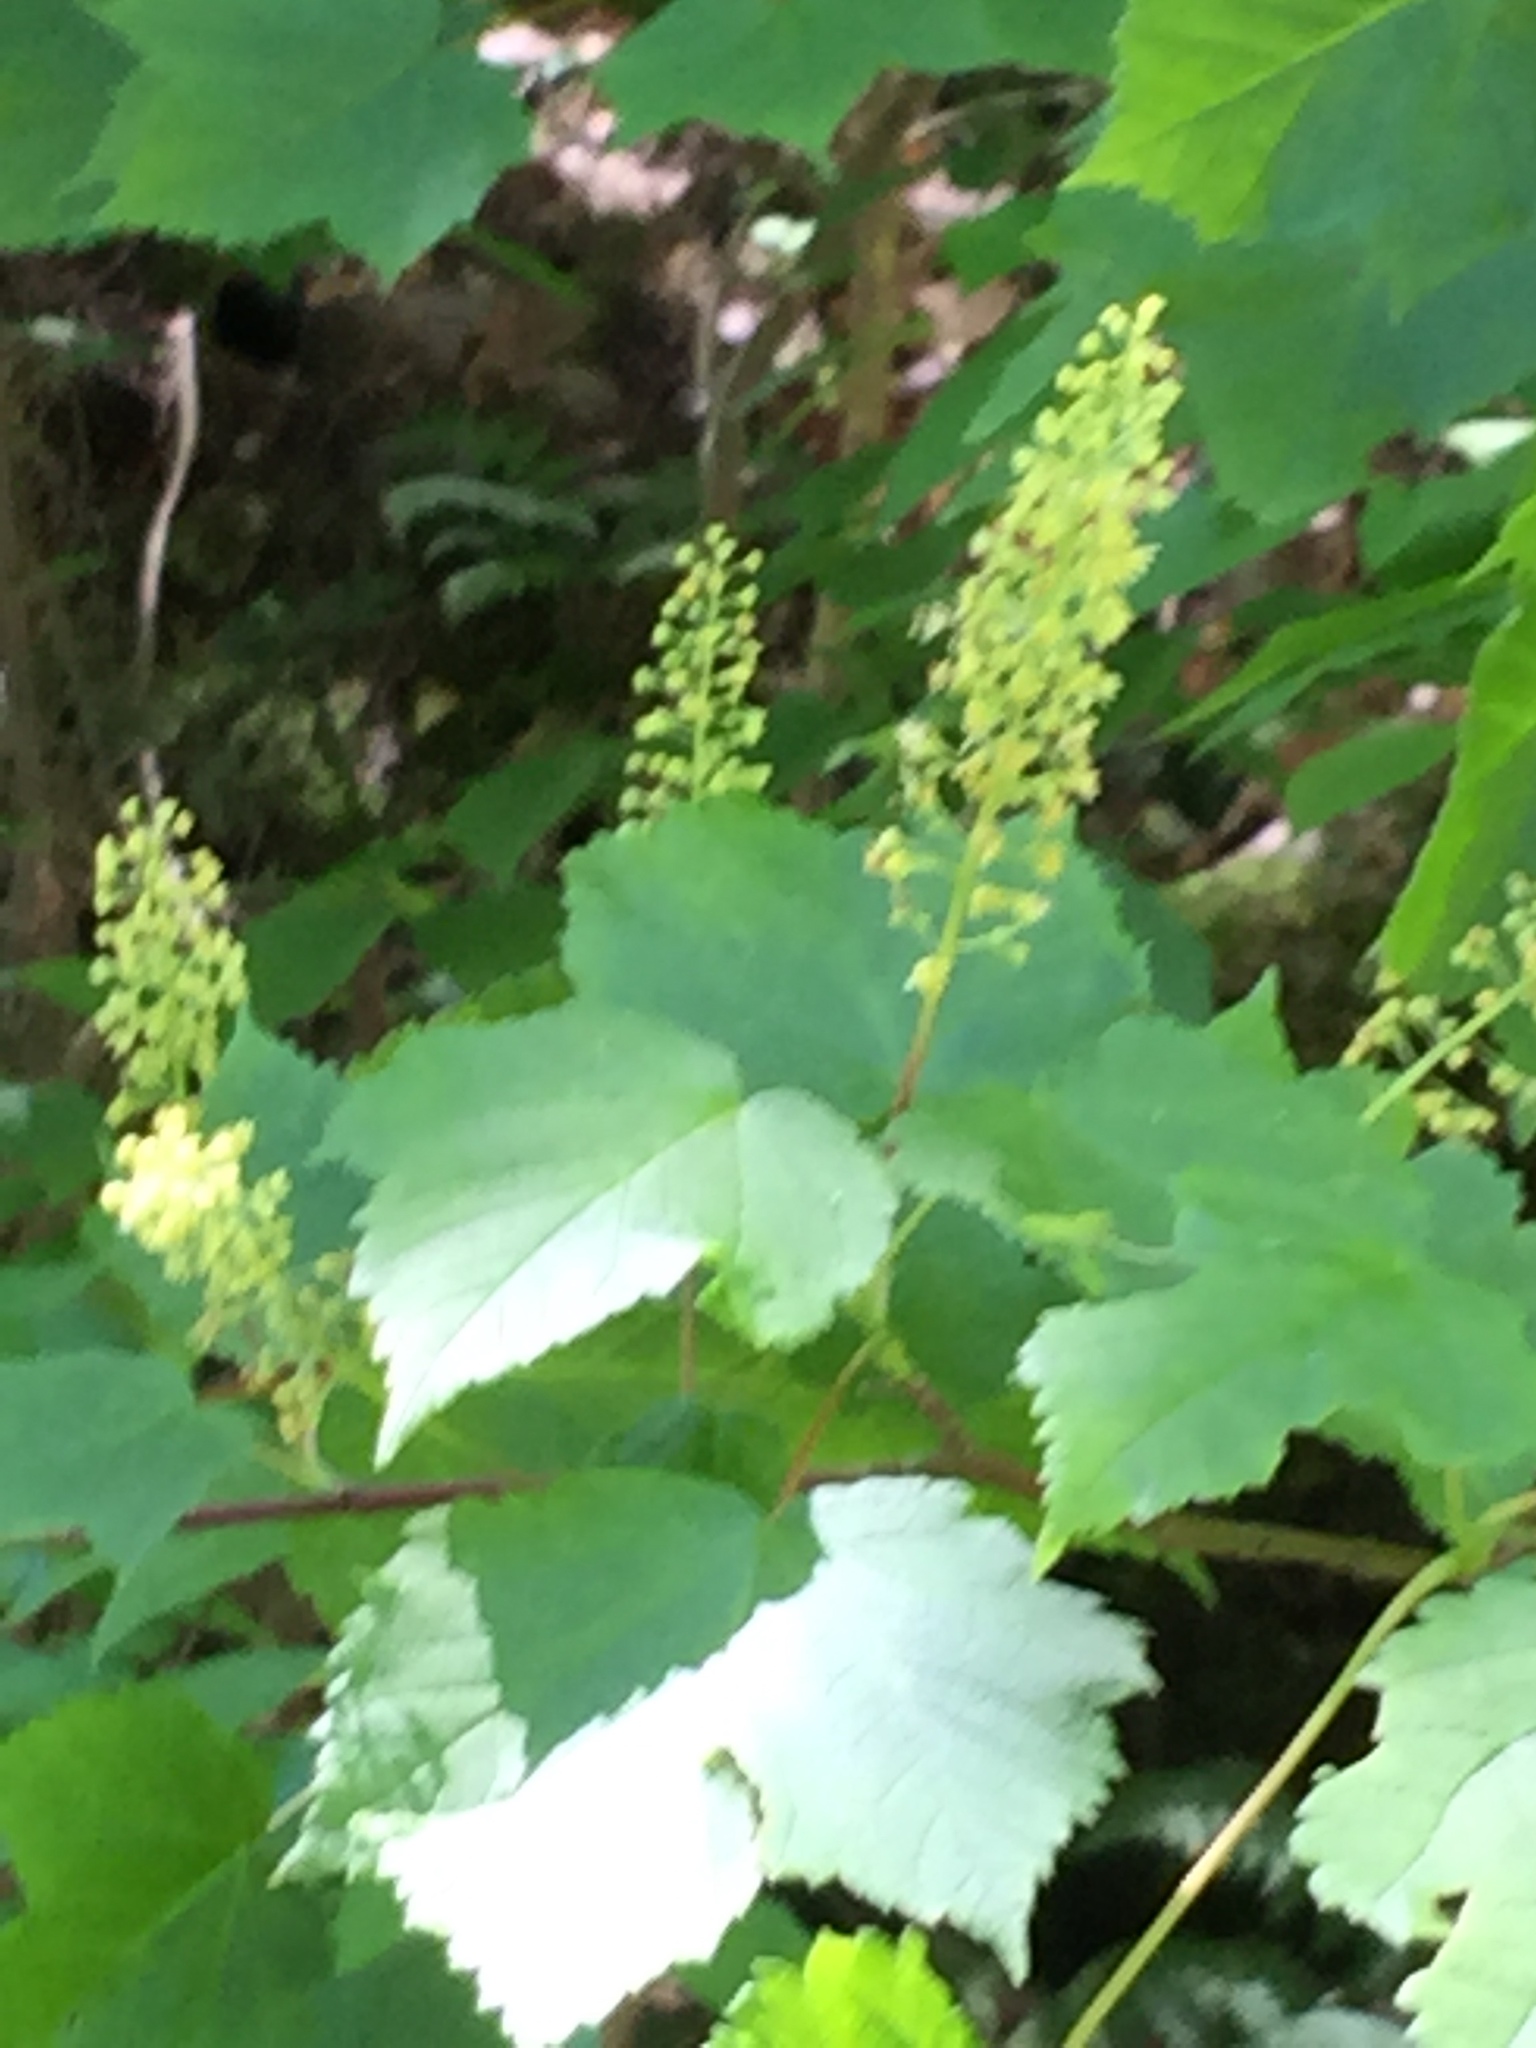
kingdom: Plantae
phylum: Tracheophyta
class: Magnoliopsida
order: Sapindales
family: Sapindaceae
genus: Acer
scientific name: Acer spicatum
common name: Mountain maple
